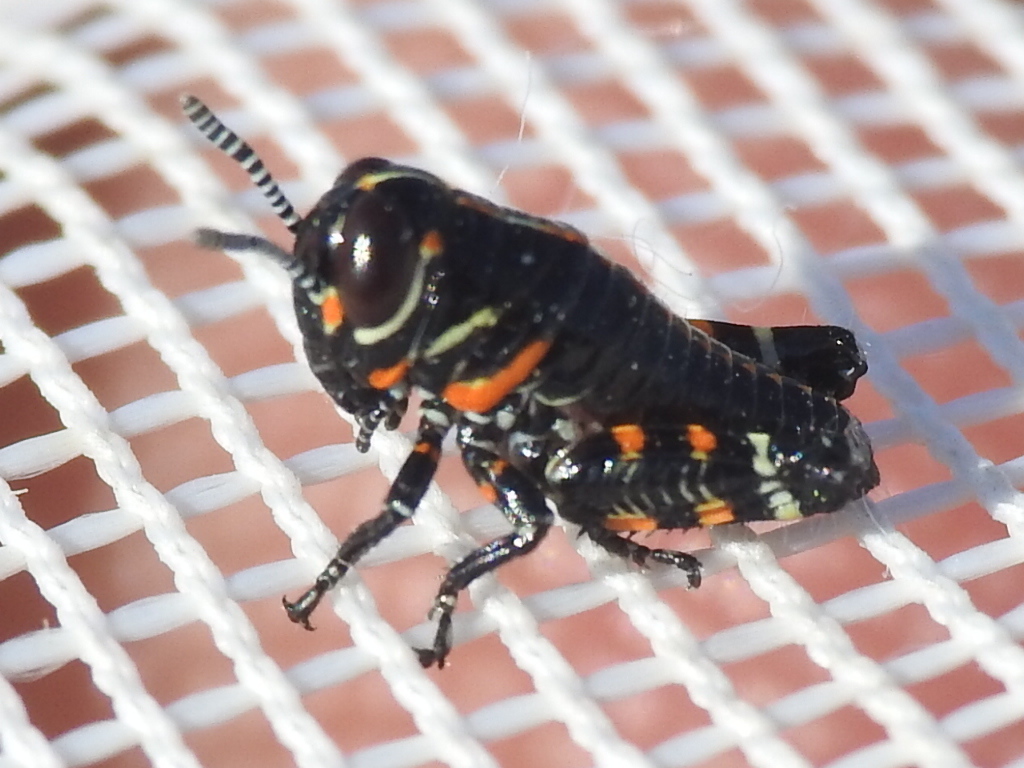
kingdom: Animalia
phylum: Arthropoda
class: Insecta
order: Orthoptera
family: Acrididae
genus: Dactylotum
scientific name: Dactylotum bicolor
